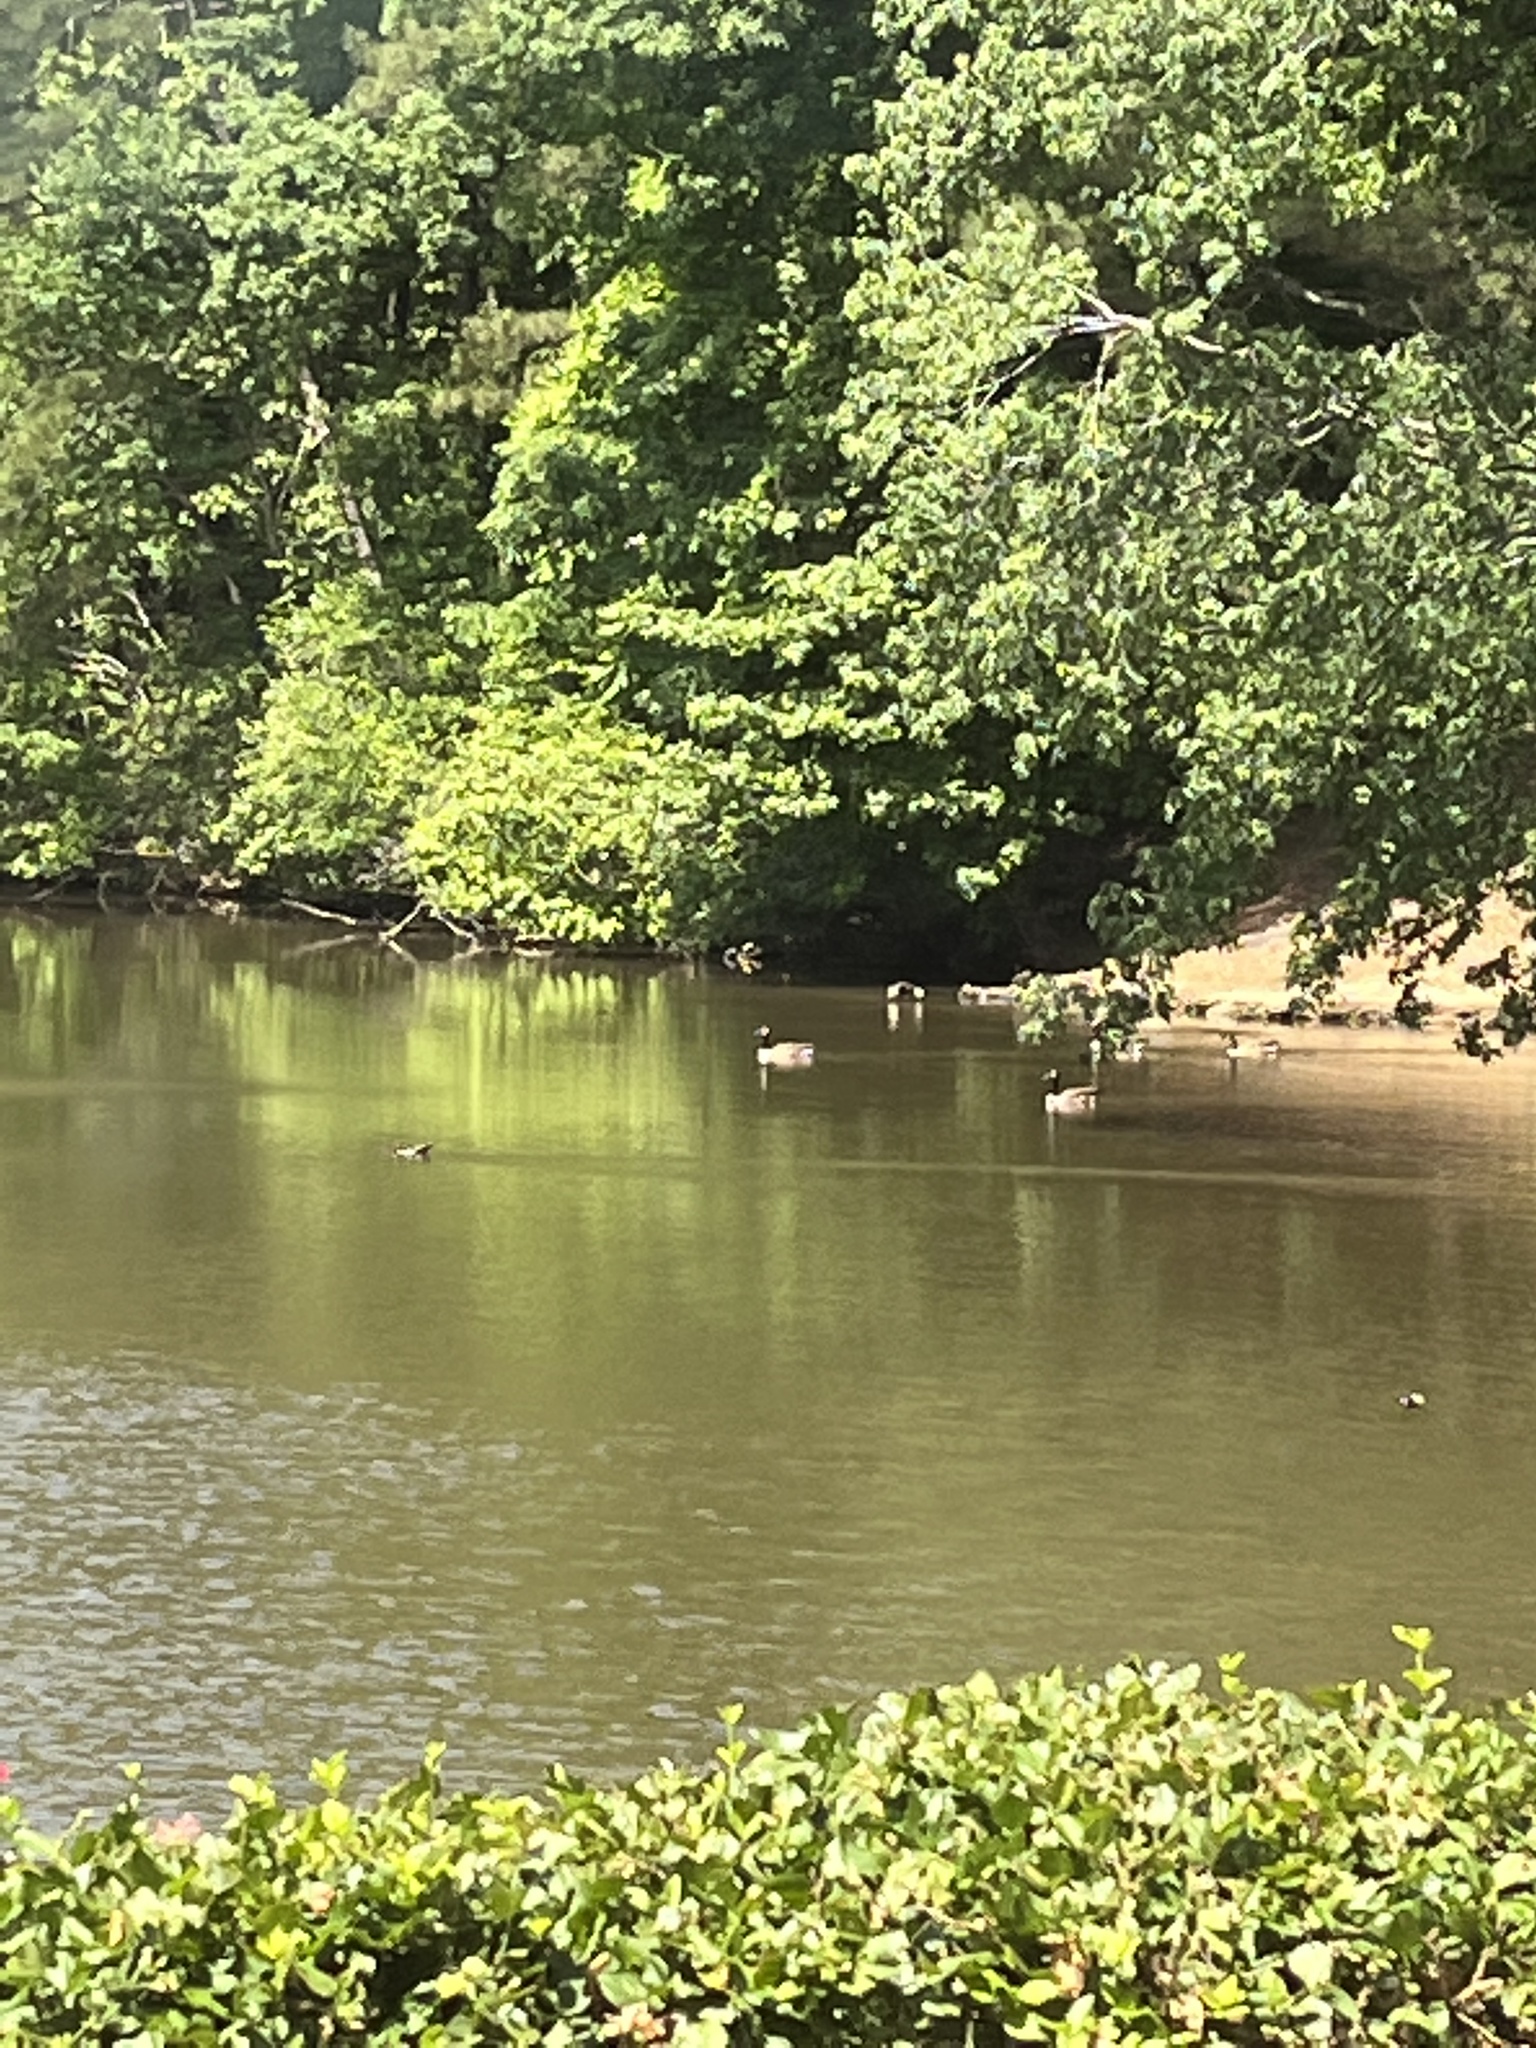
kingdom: Animalia
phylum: Chordata
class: Aves
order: Anseriformes
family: Anatidae
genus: Branta
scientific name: Branta canadensis
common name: Canada goose
